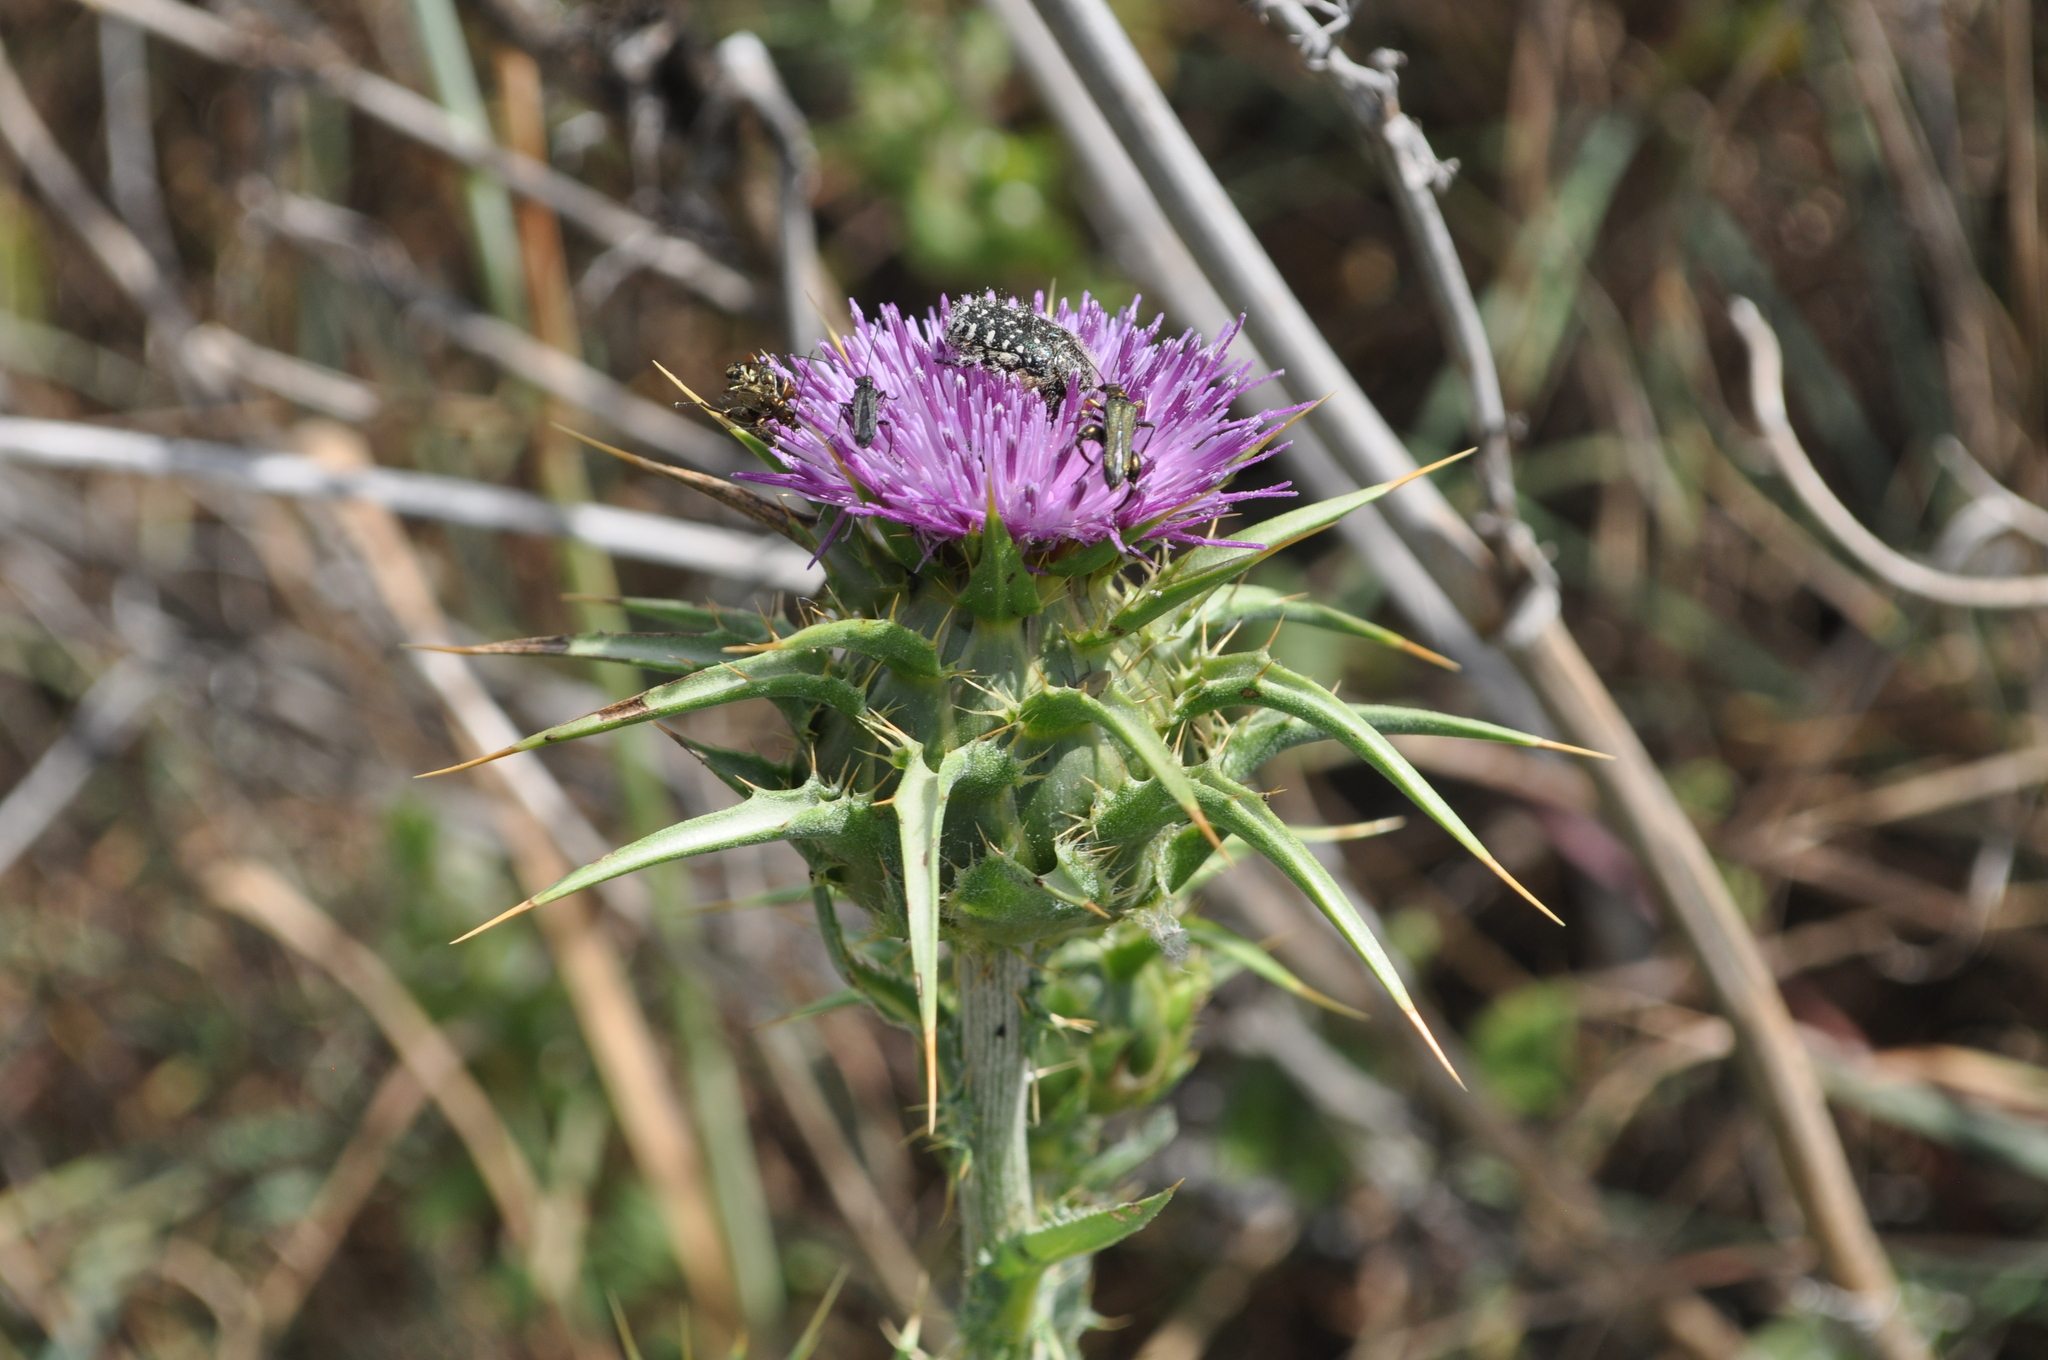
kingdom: Plantae
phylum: Tracheophyta
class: Magnoliopsida
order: Asterales
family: Asteraceae
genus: Silybum
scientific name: Silybum marianum
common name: Milk thistle
